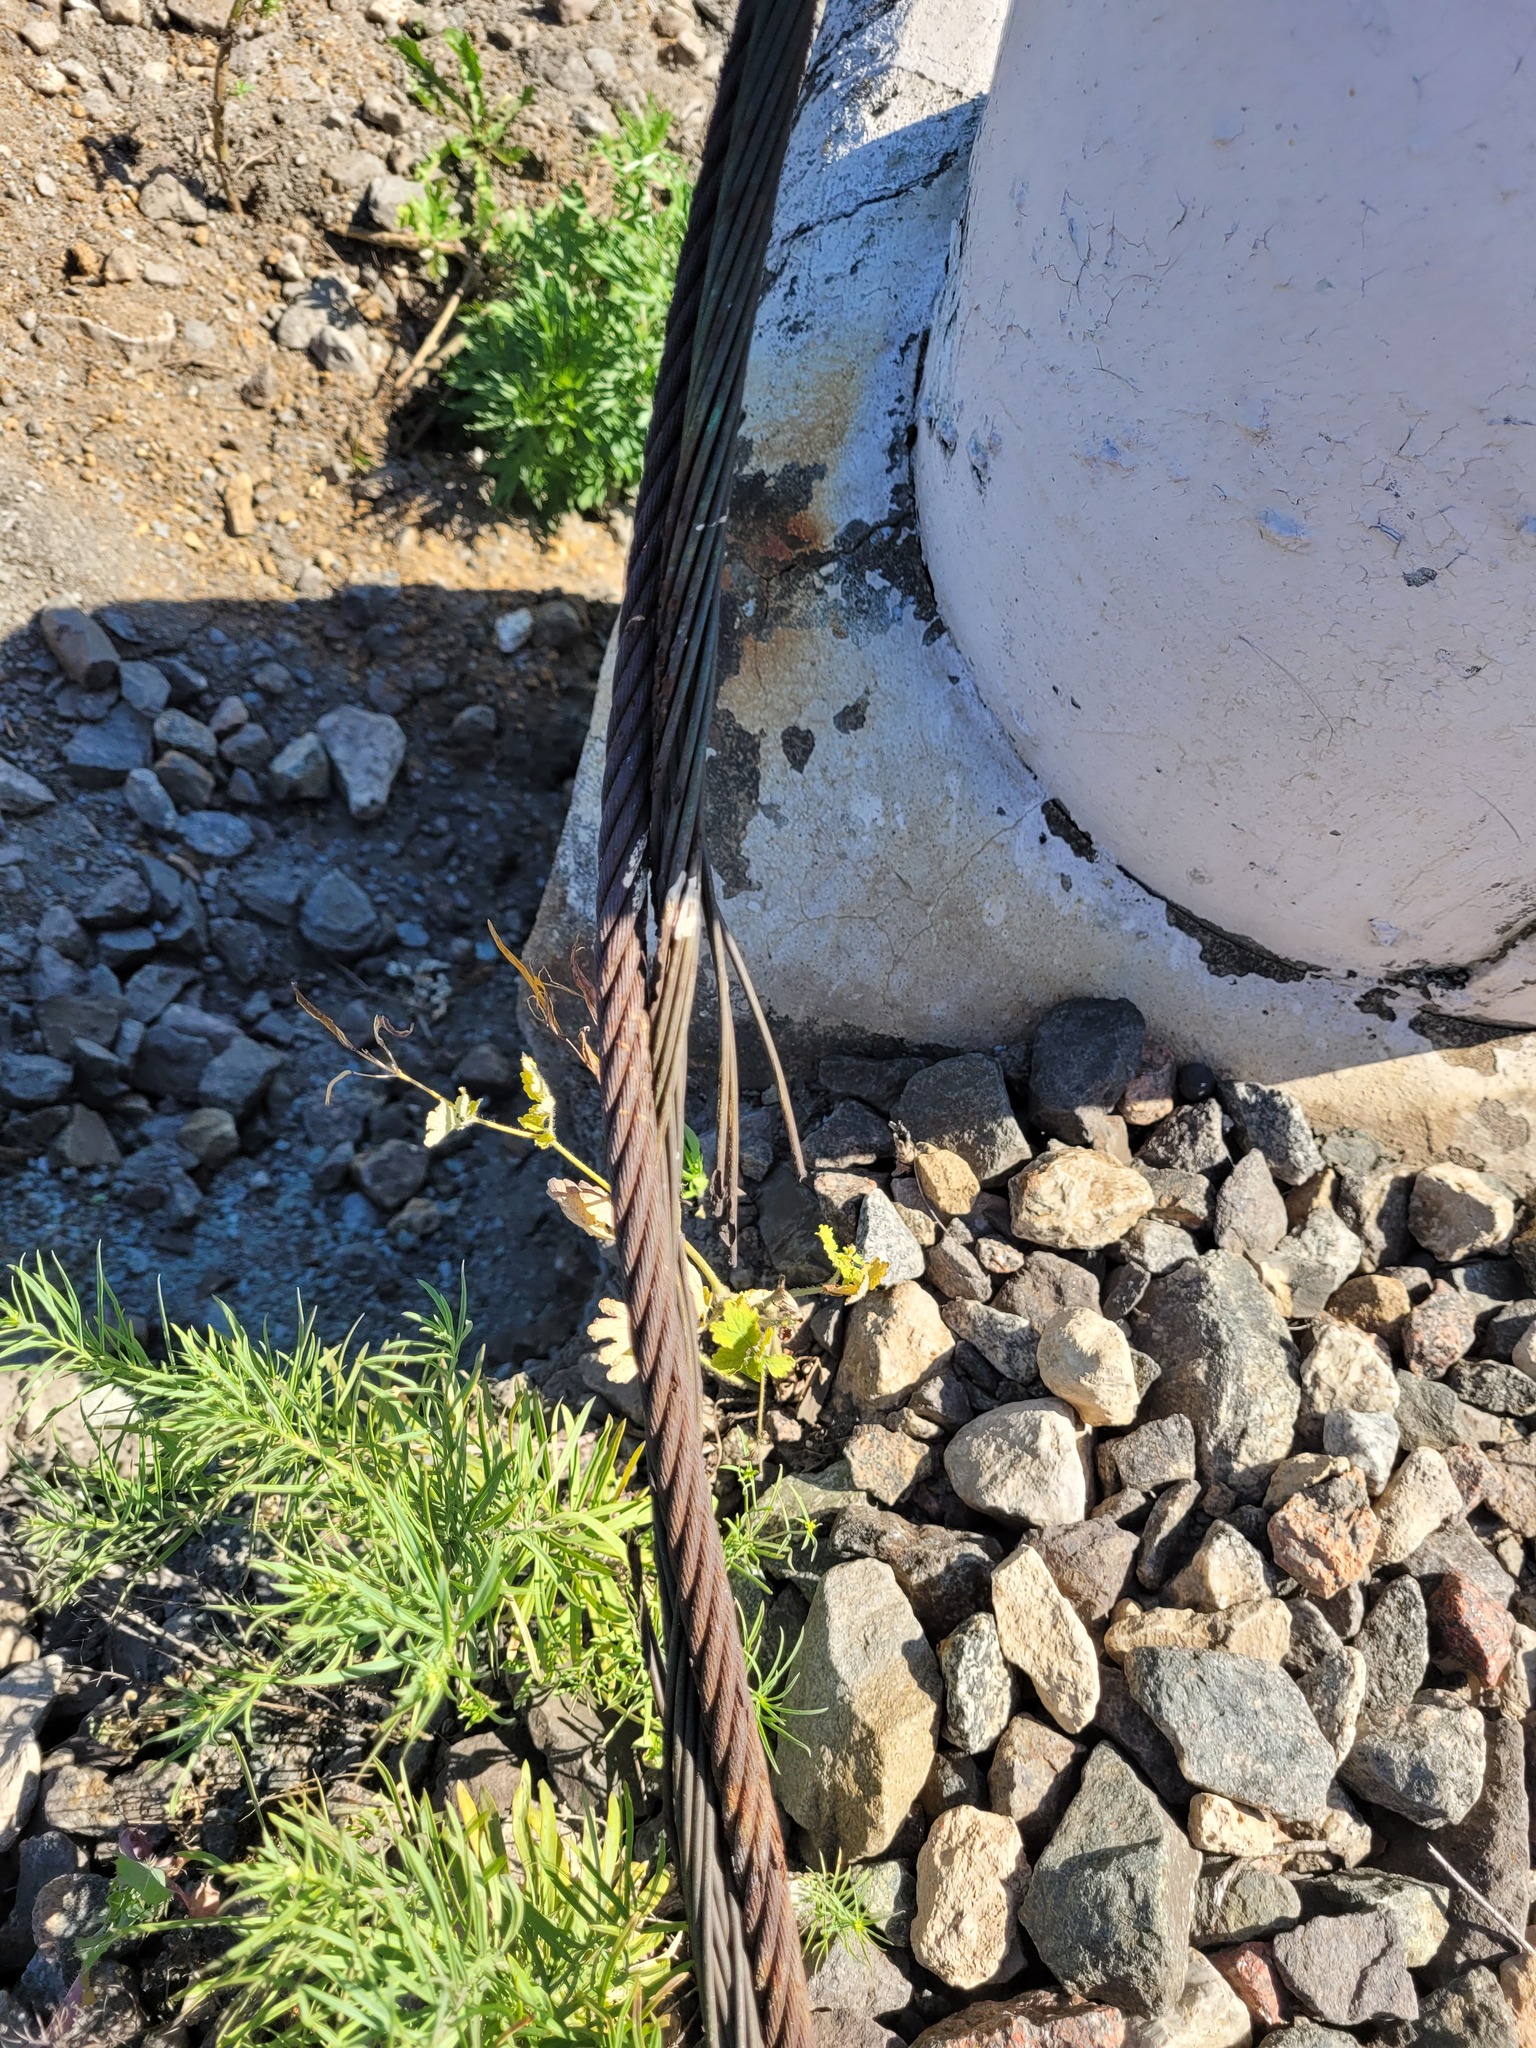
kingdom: Plantae
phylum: Tracheophyta
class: Magnoliopsida
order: Ranunculales
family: Papaveraceae
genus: Chelidonium
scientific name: Chelidonium majus
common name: Greater celandine
